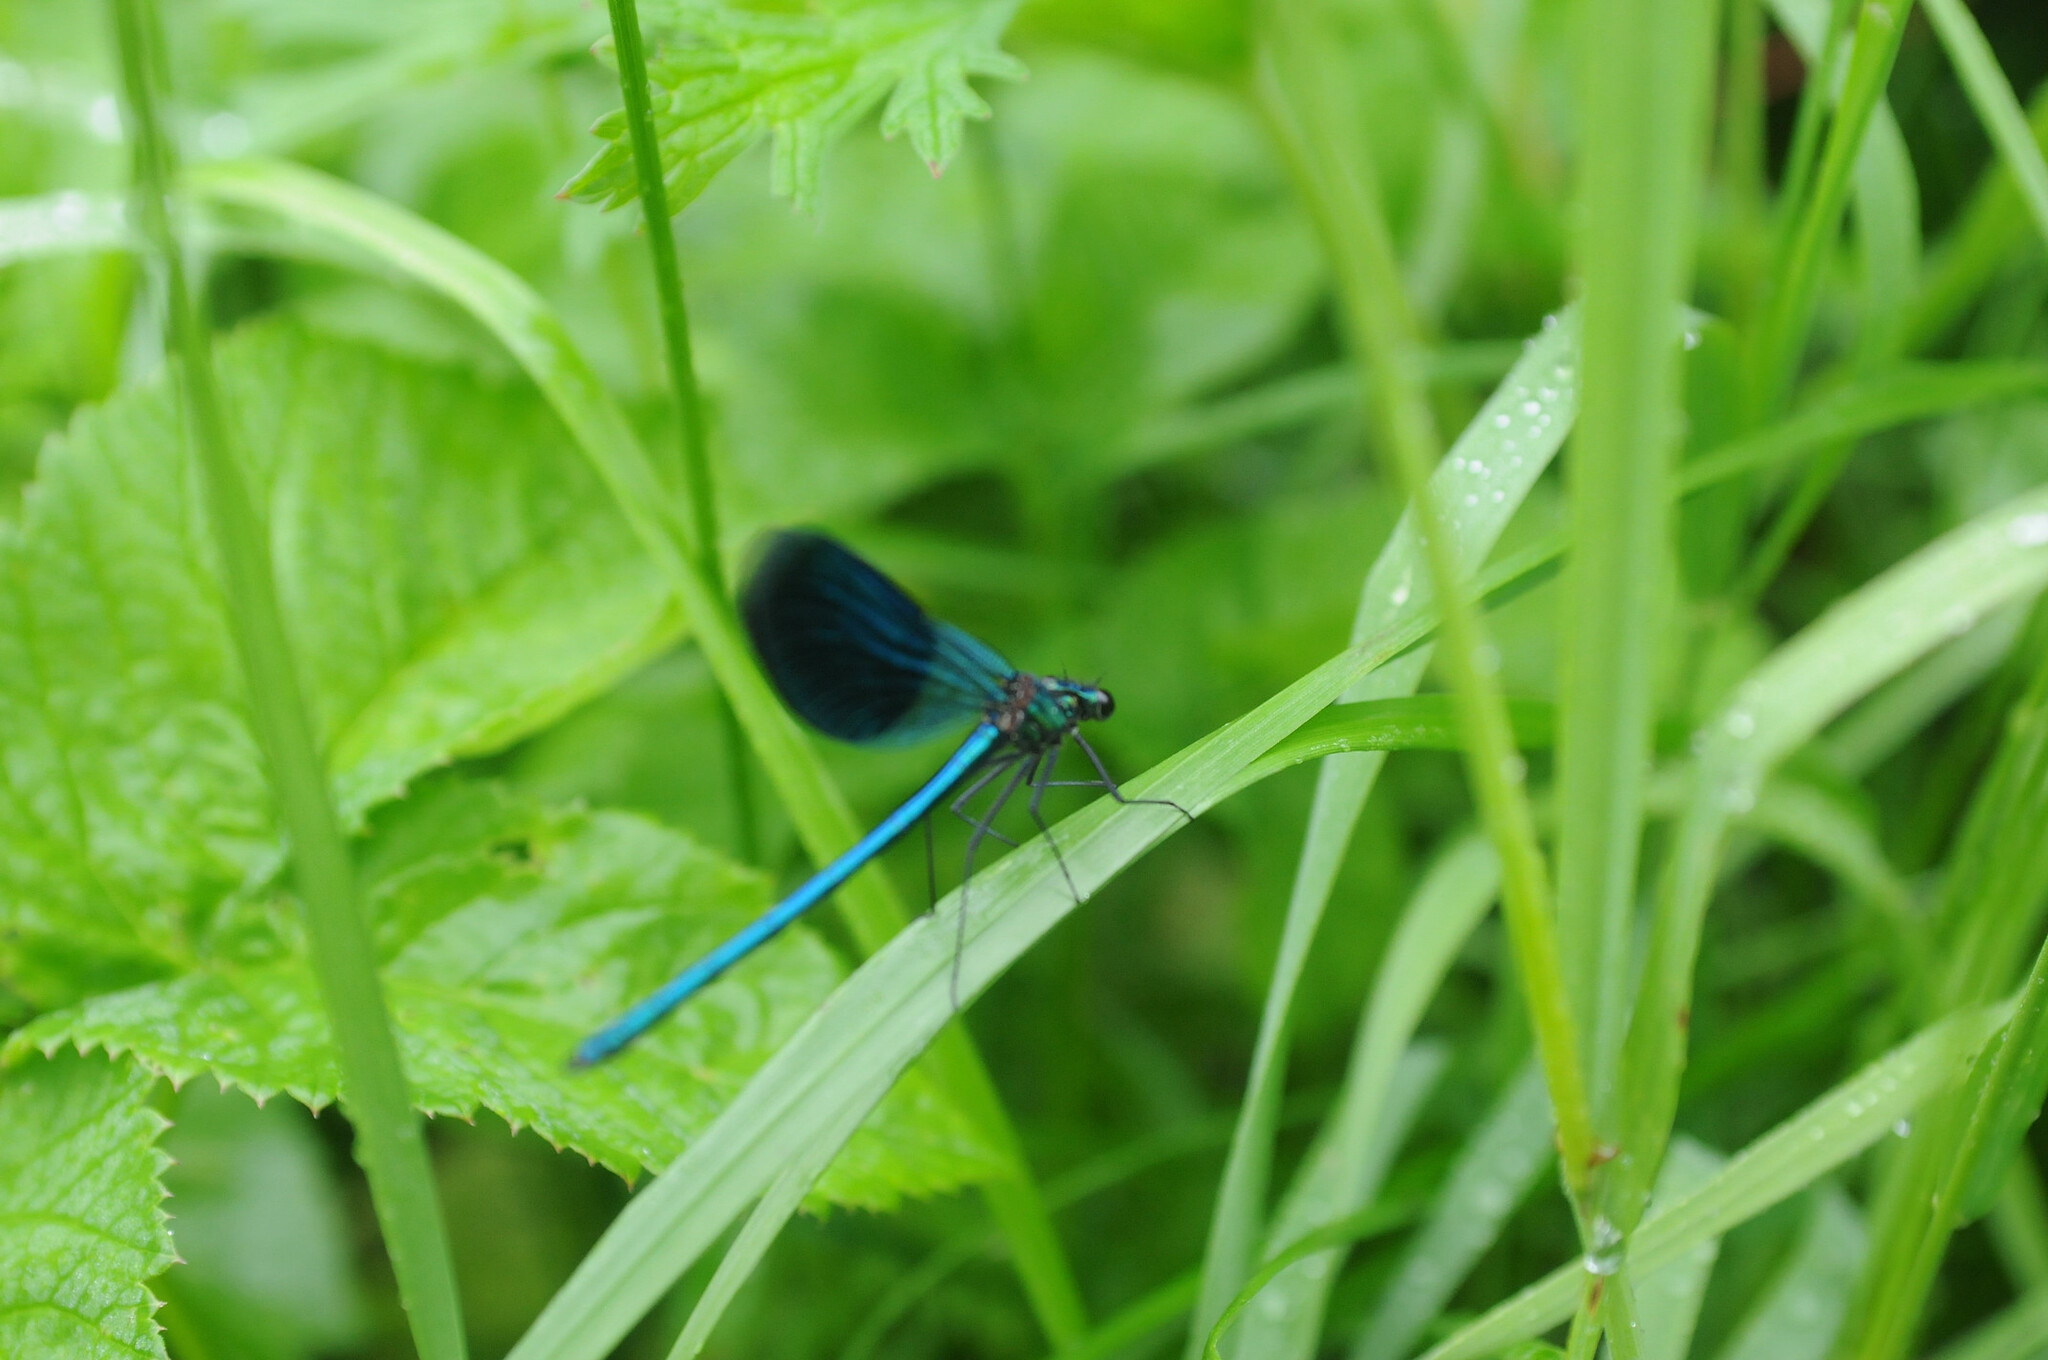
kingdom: Animalia
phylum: Arthropoda
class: Insecta
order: Odonata
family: Calopterygidae
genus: Calopteryx
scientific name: Calopteryx splendens
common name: Banded demoiselle
